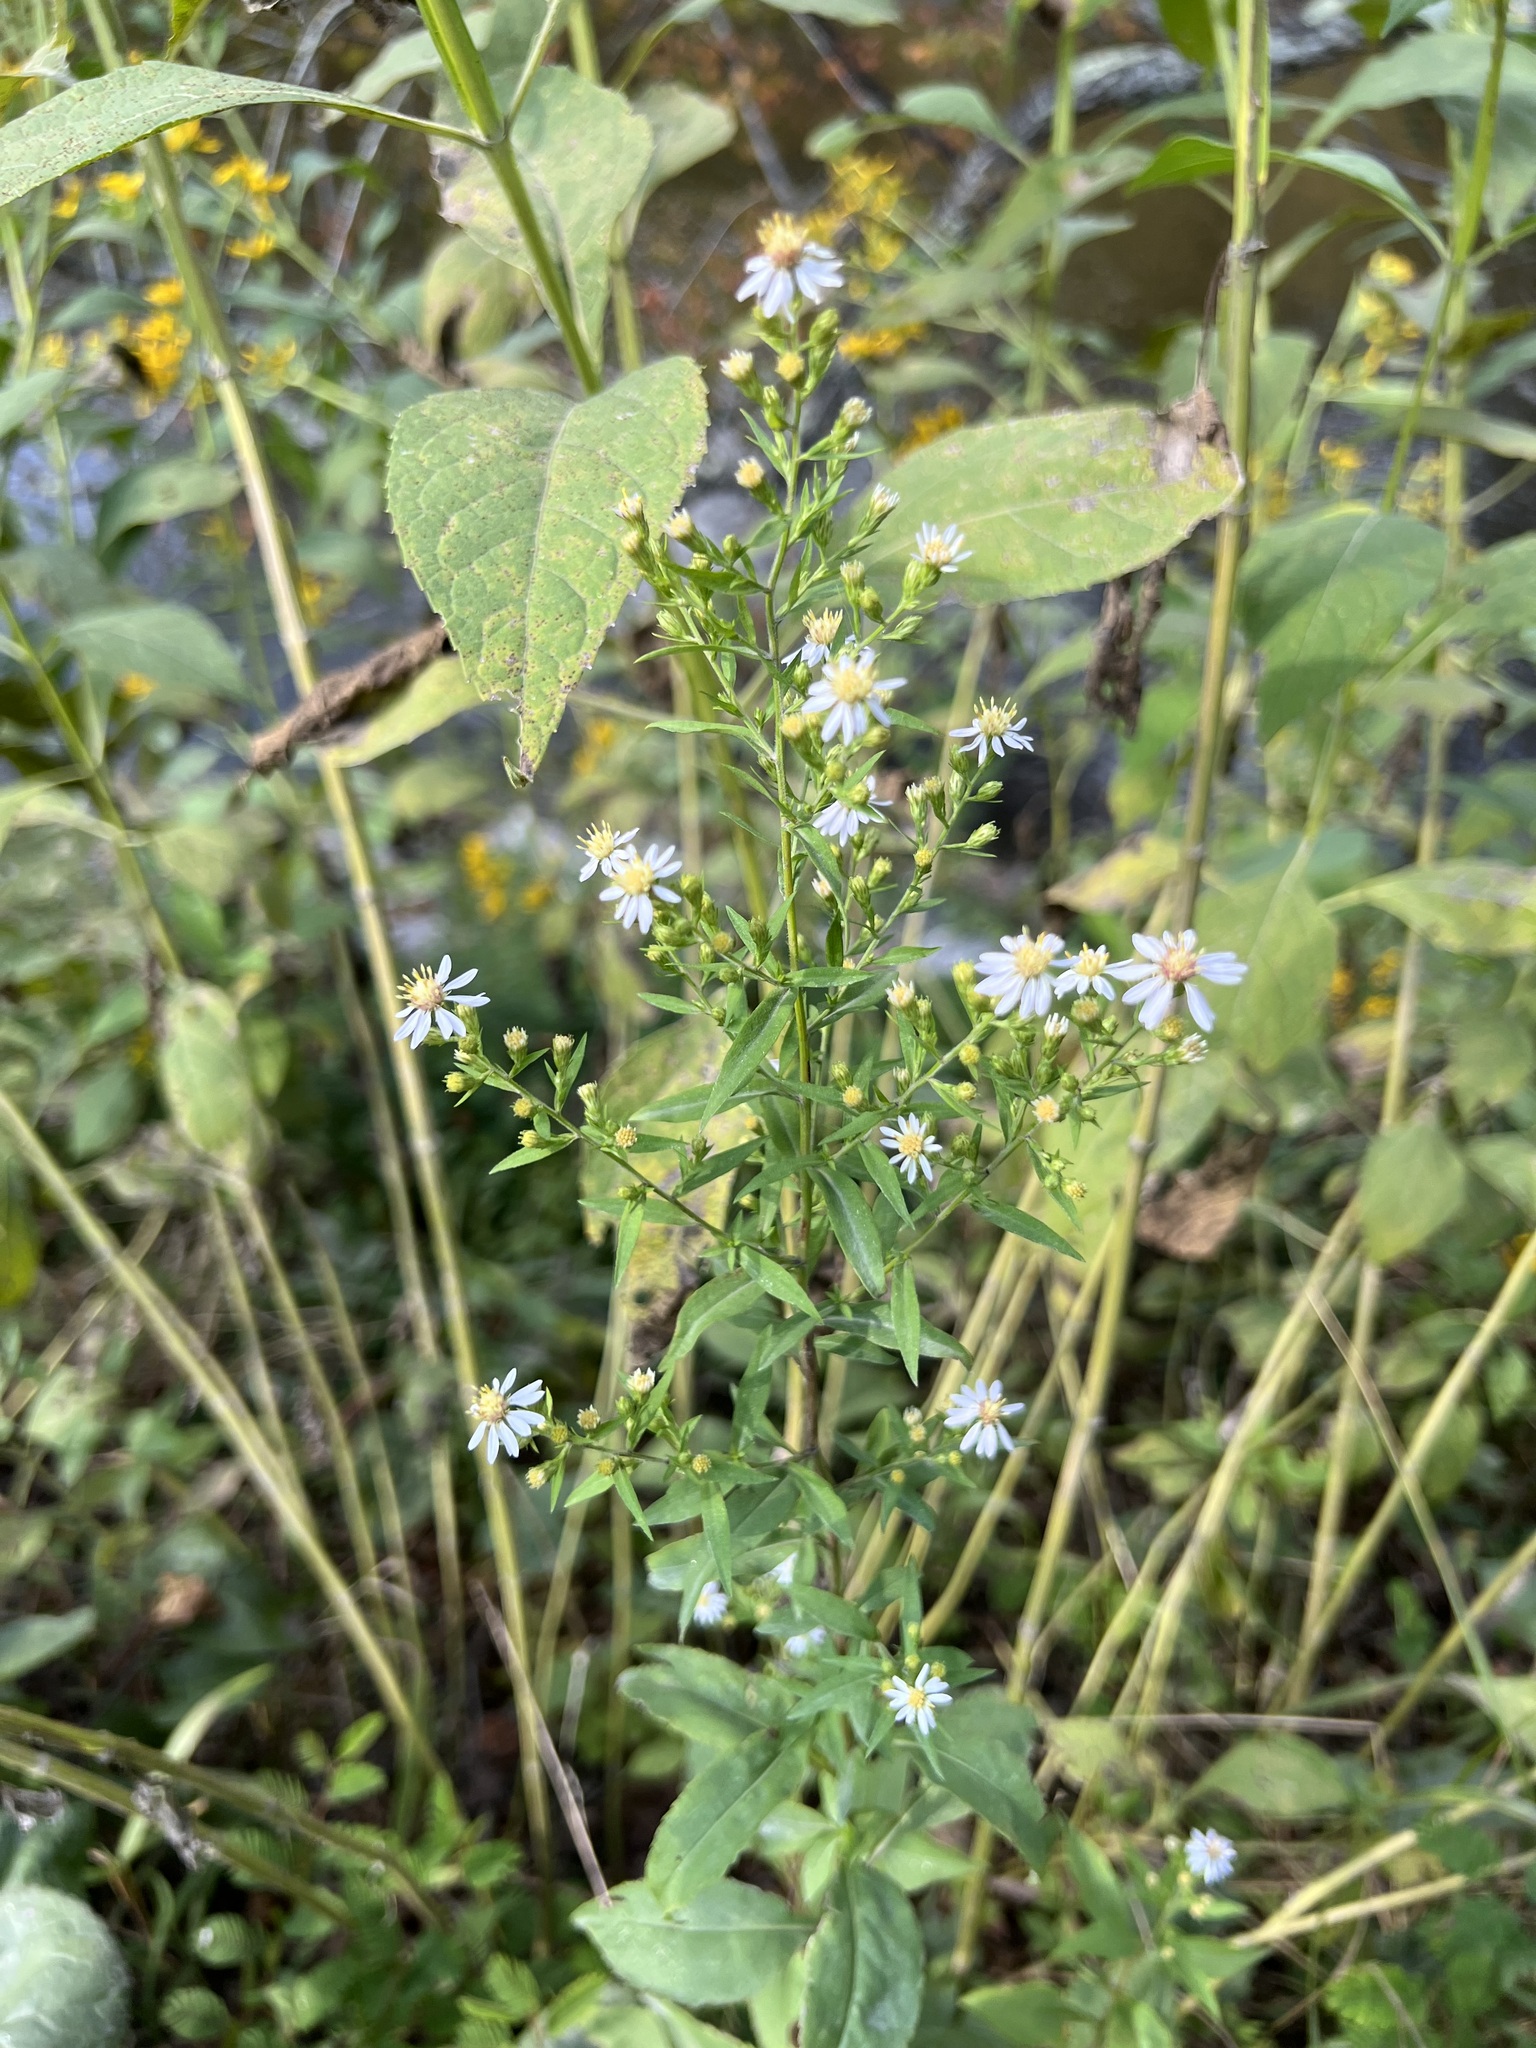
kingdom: Plantae
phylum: Tracheophyta
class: Magnoliopsida
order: Asterales
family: Asteraceae
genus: Symphyotrichum
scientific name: Symphyotrichum urophyllum
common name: Arrow-leaved aster
